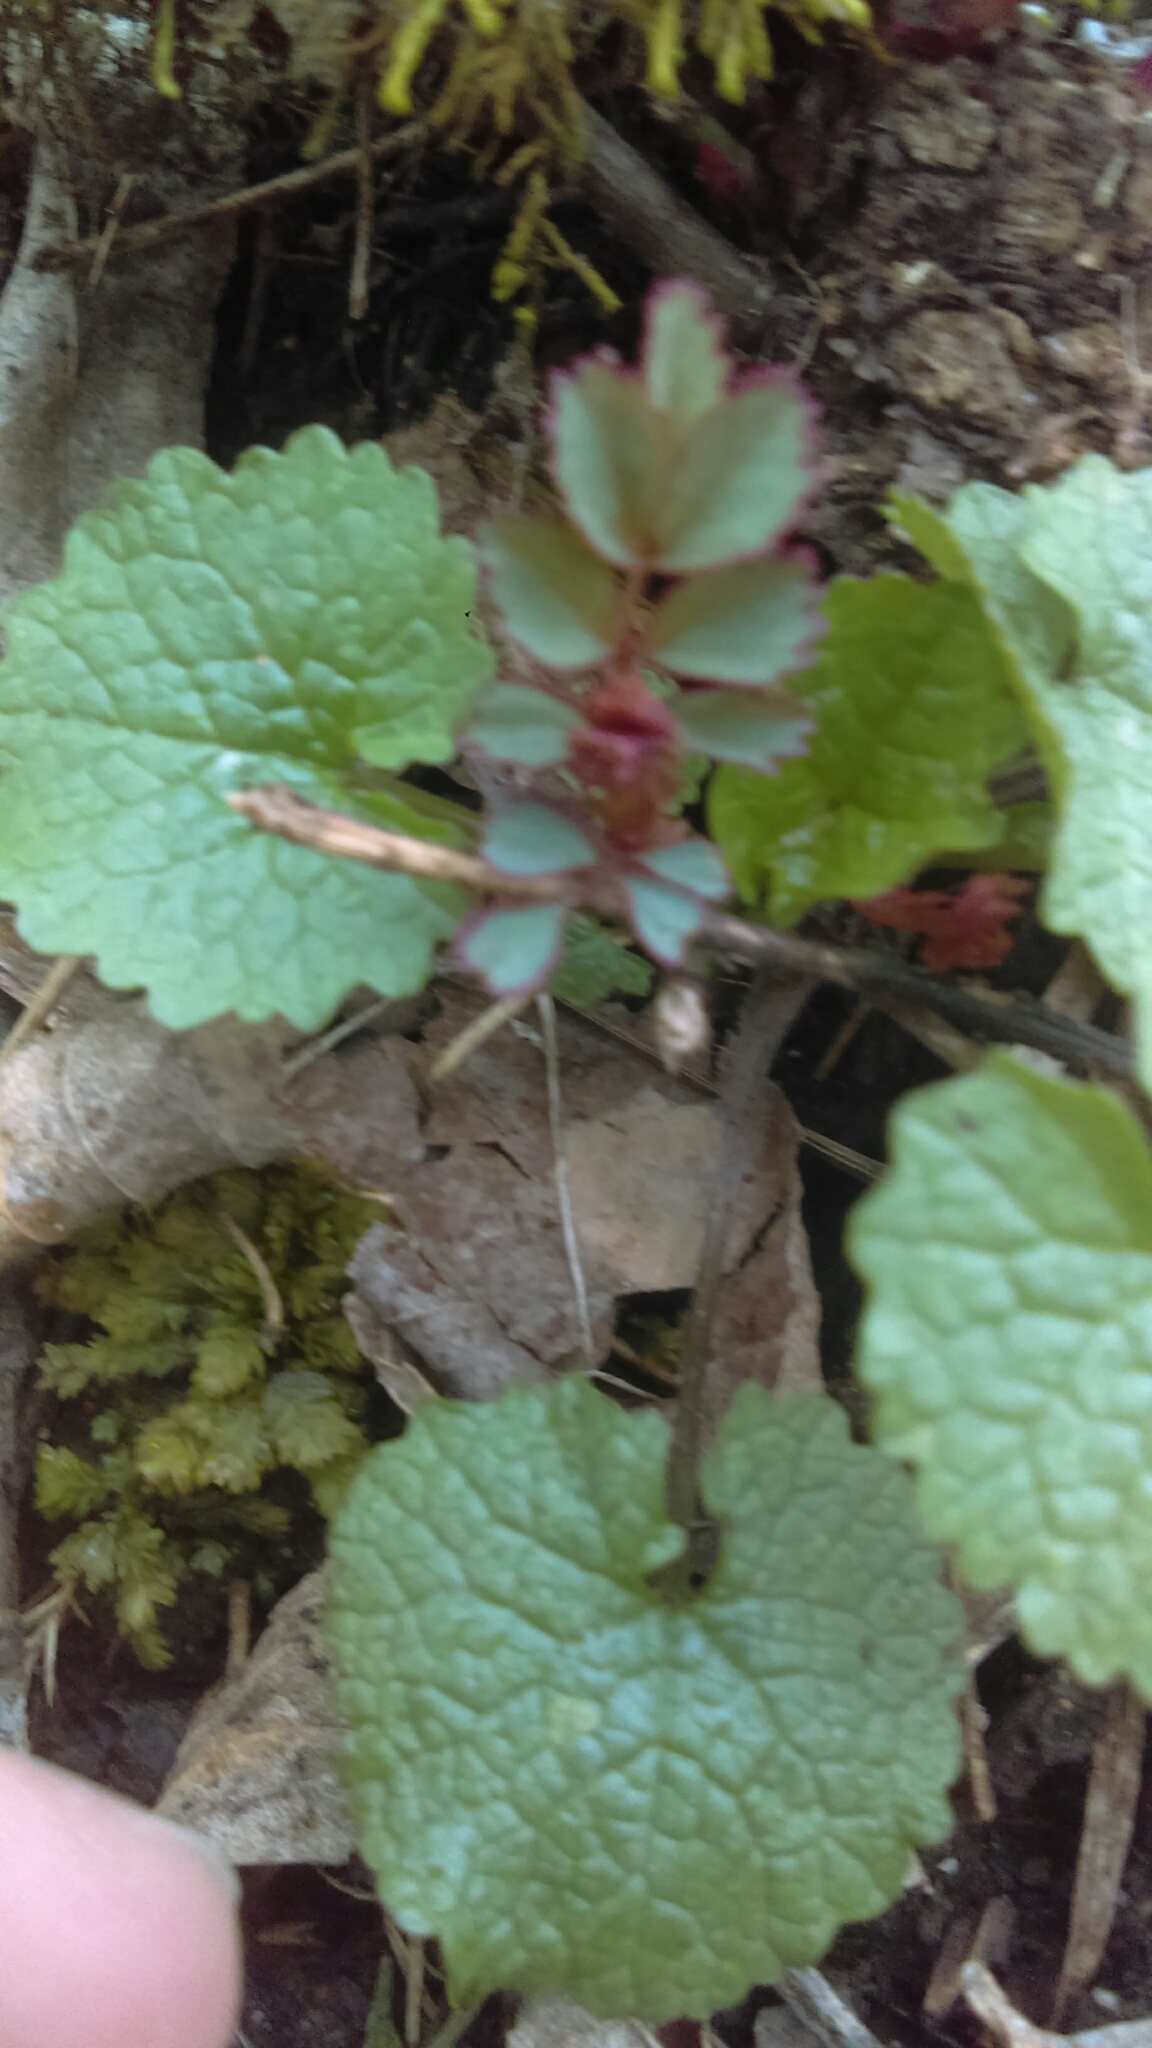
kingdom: Plantae
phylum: Tracheophyta
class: Magnoliopsida
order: Rosales
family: Rosaceae
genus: Geum
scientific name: Geum canadense
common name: White avens
